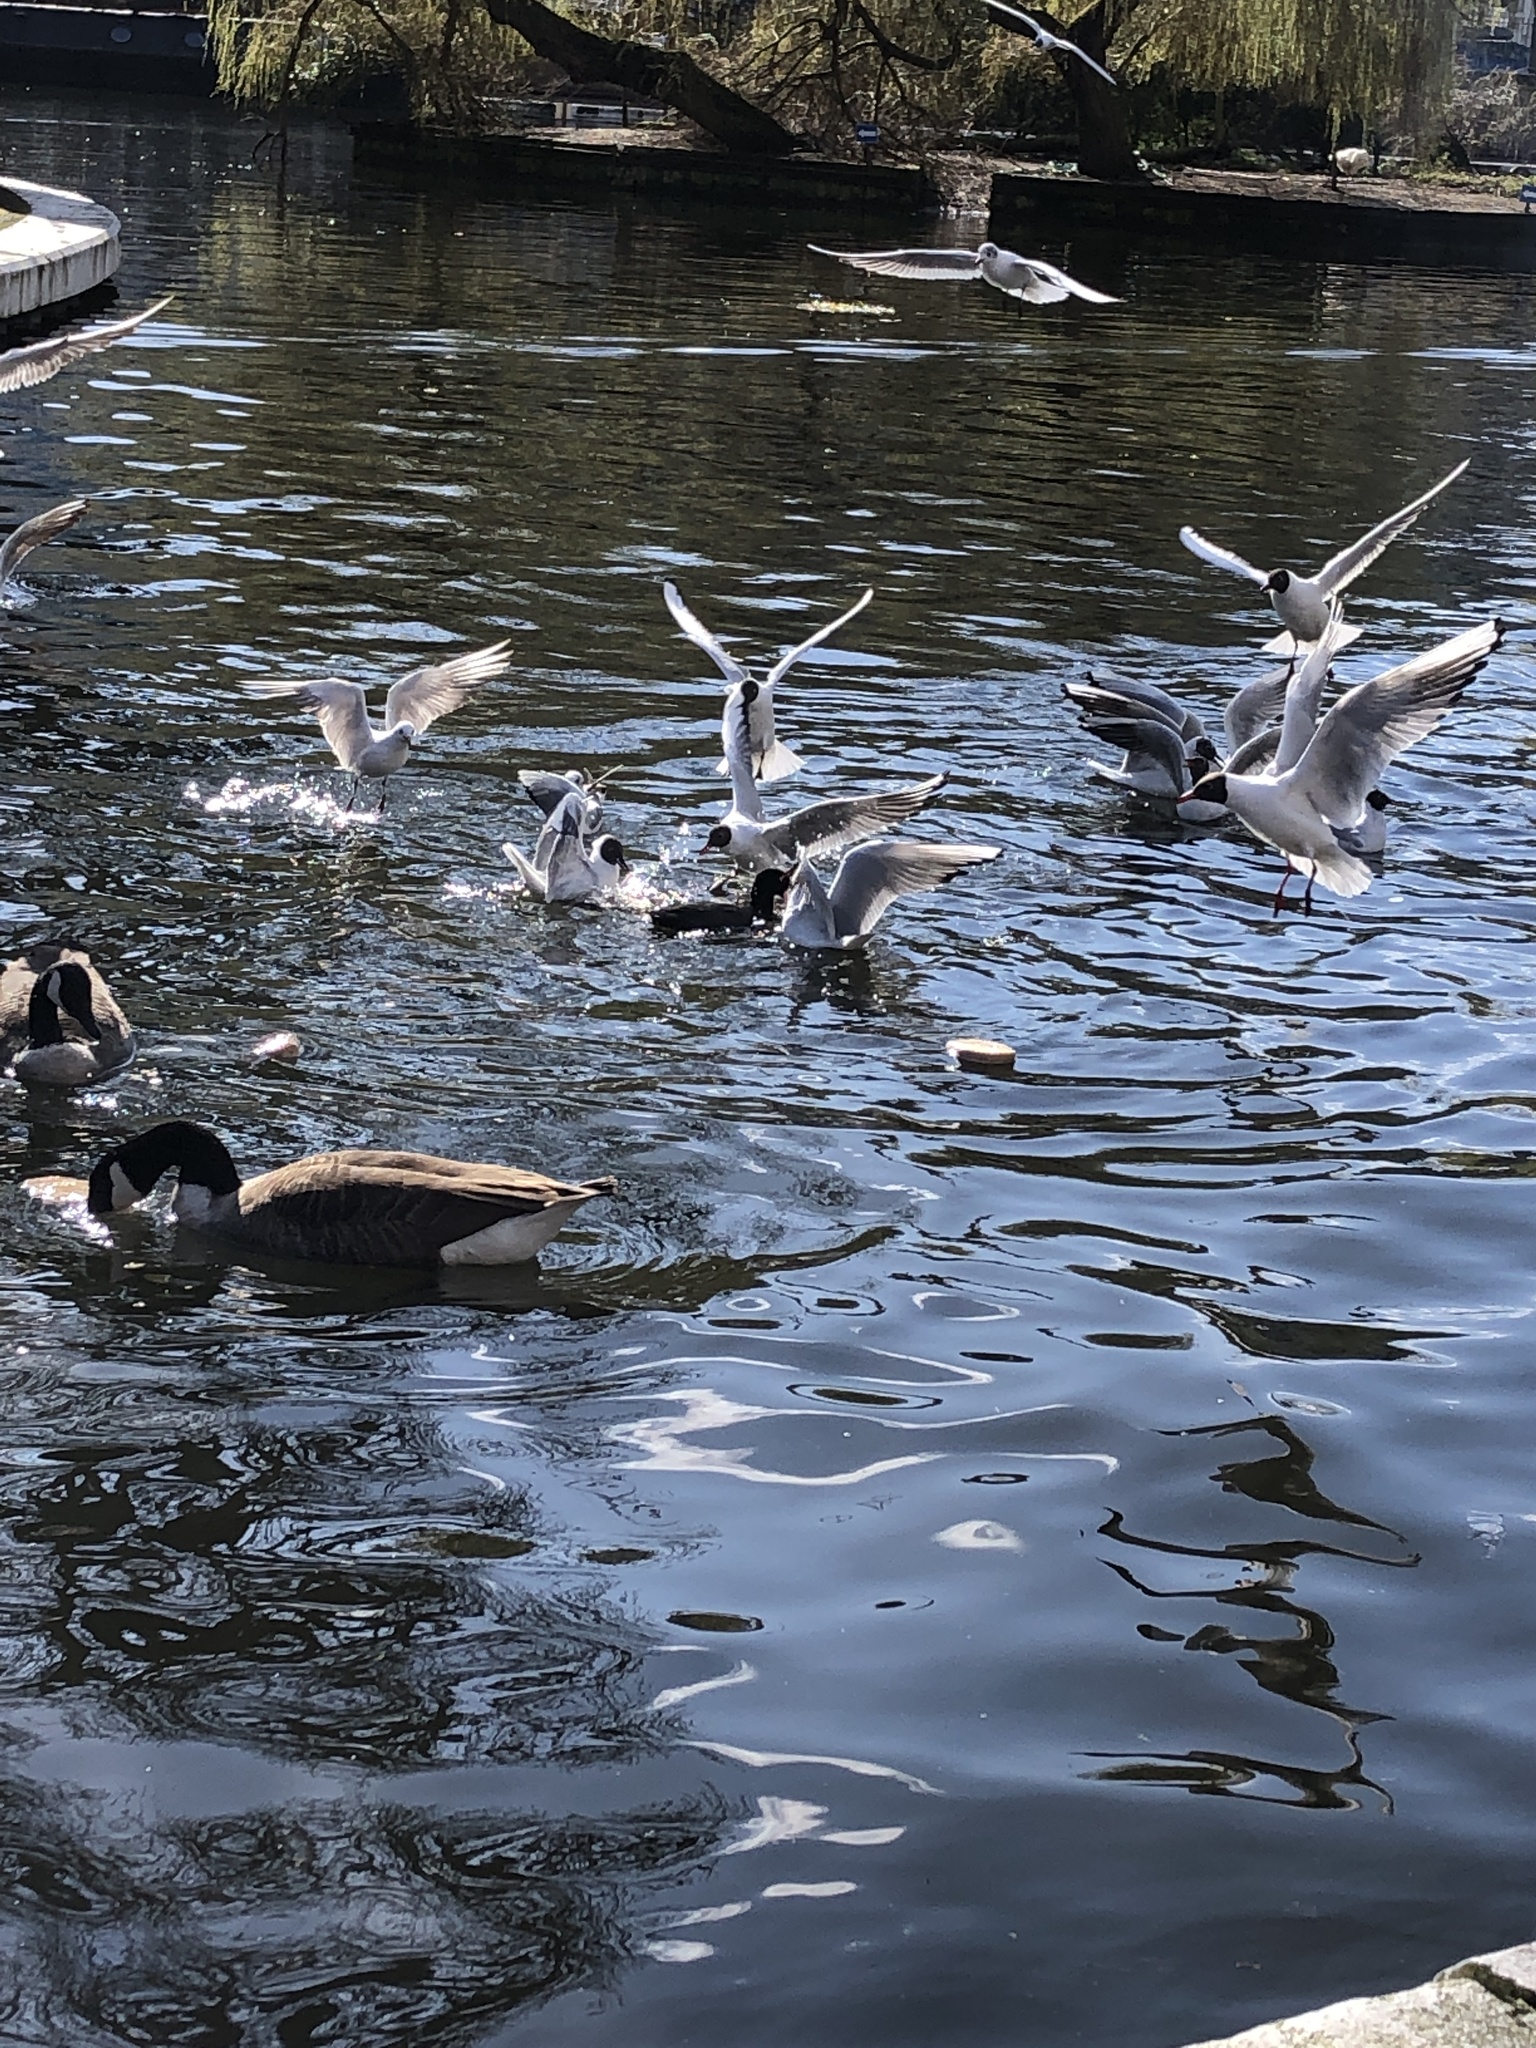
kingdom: Animalia
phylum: Chordata
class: Aves
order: Charadriiformes
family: Laridae
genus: Chroicocephalus
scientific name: Chroicocephalus ridibundus
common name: Black-headed gull
